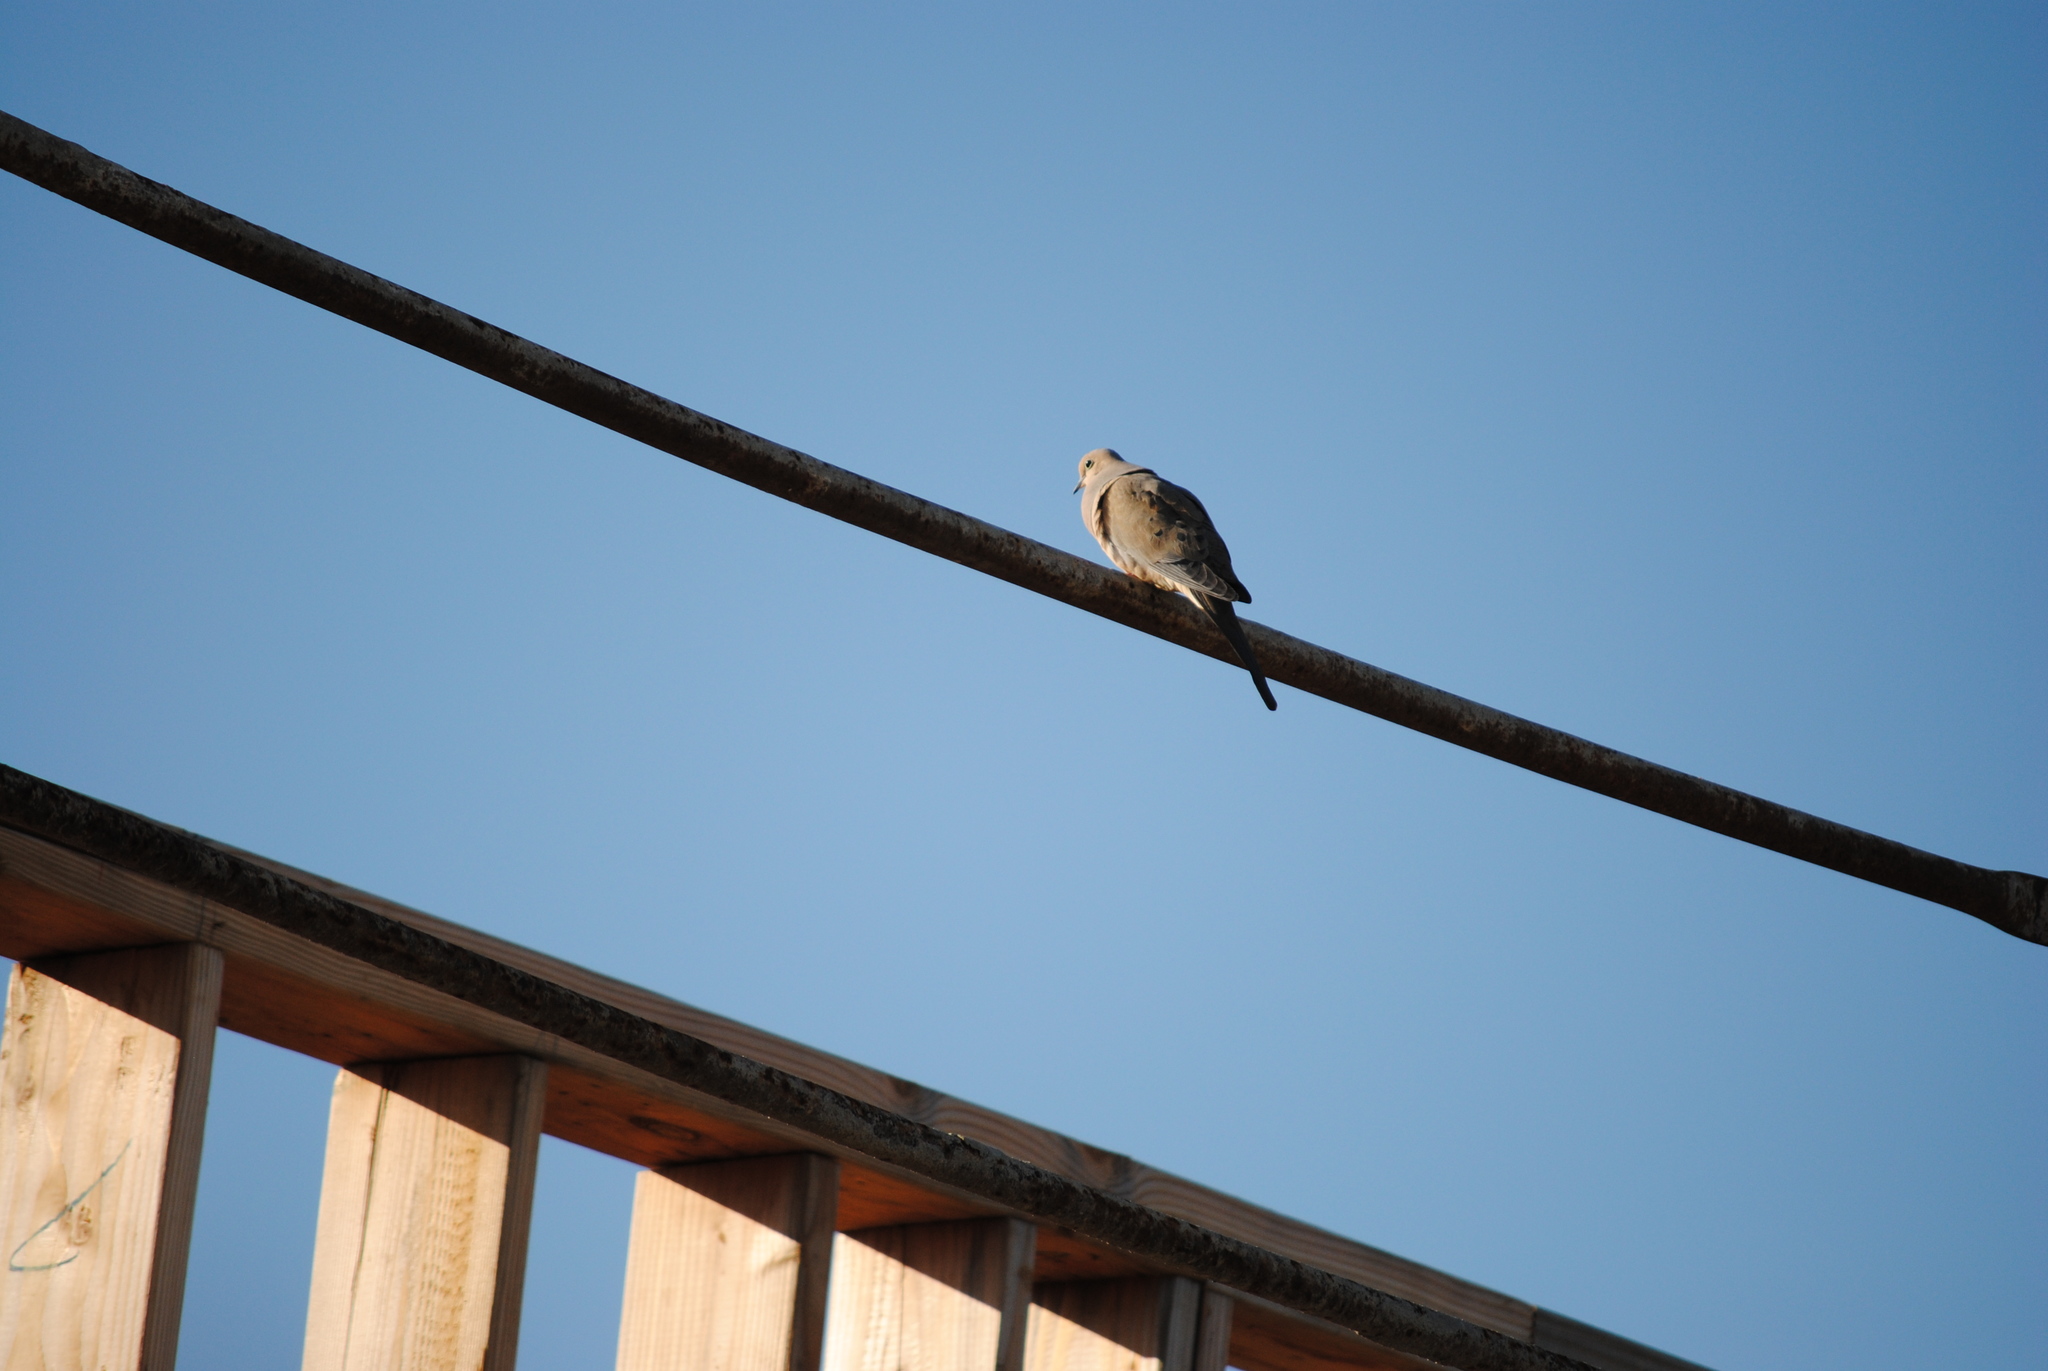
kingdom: Animalia
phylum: Chordata
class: Aves
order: Columbiformes
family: Columbidae
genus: Zenaida
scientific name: Zenaida macroura
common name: Mourning dove
